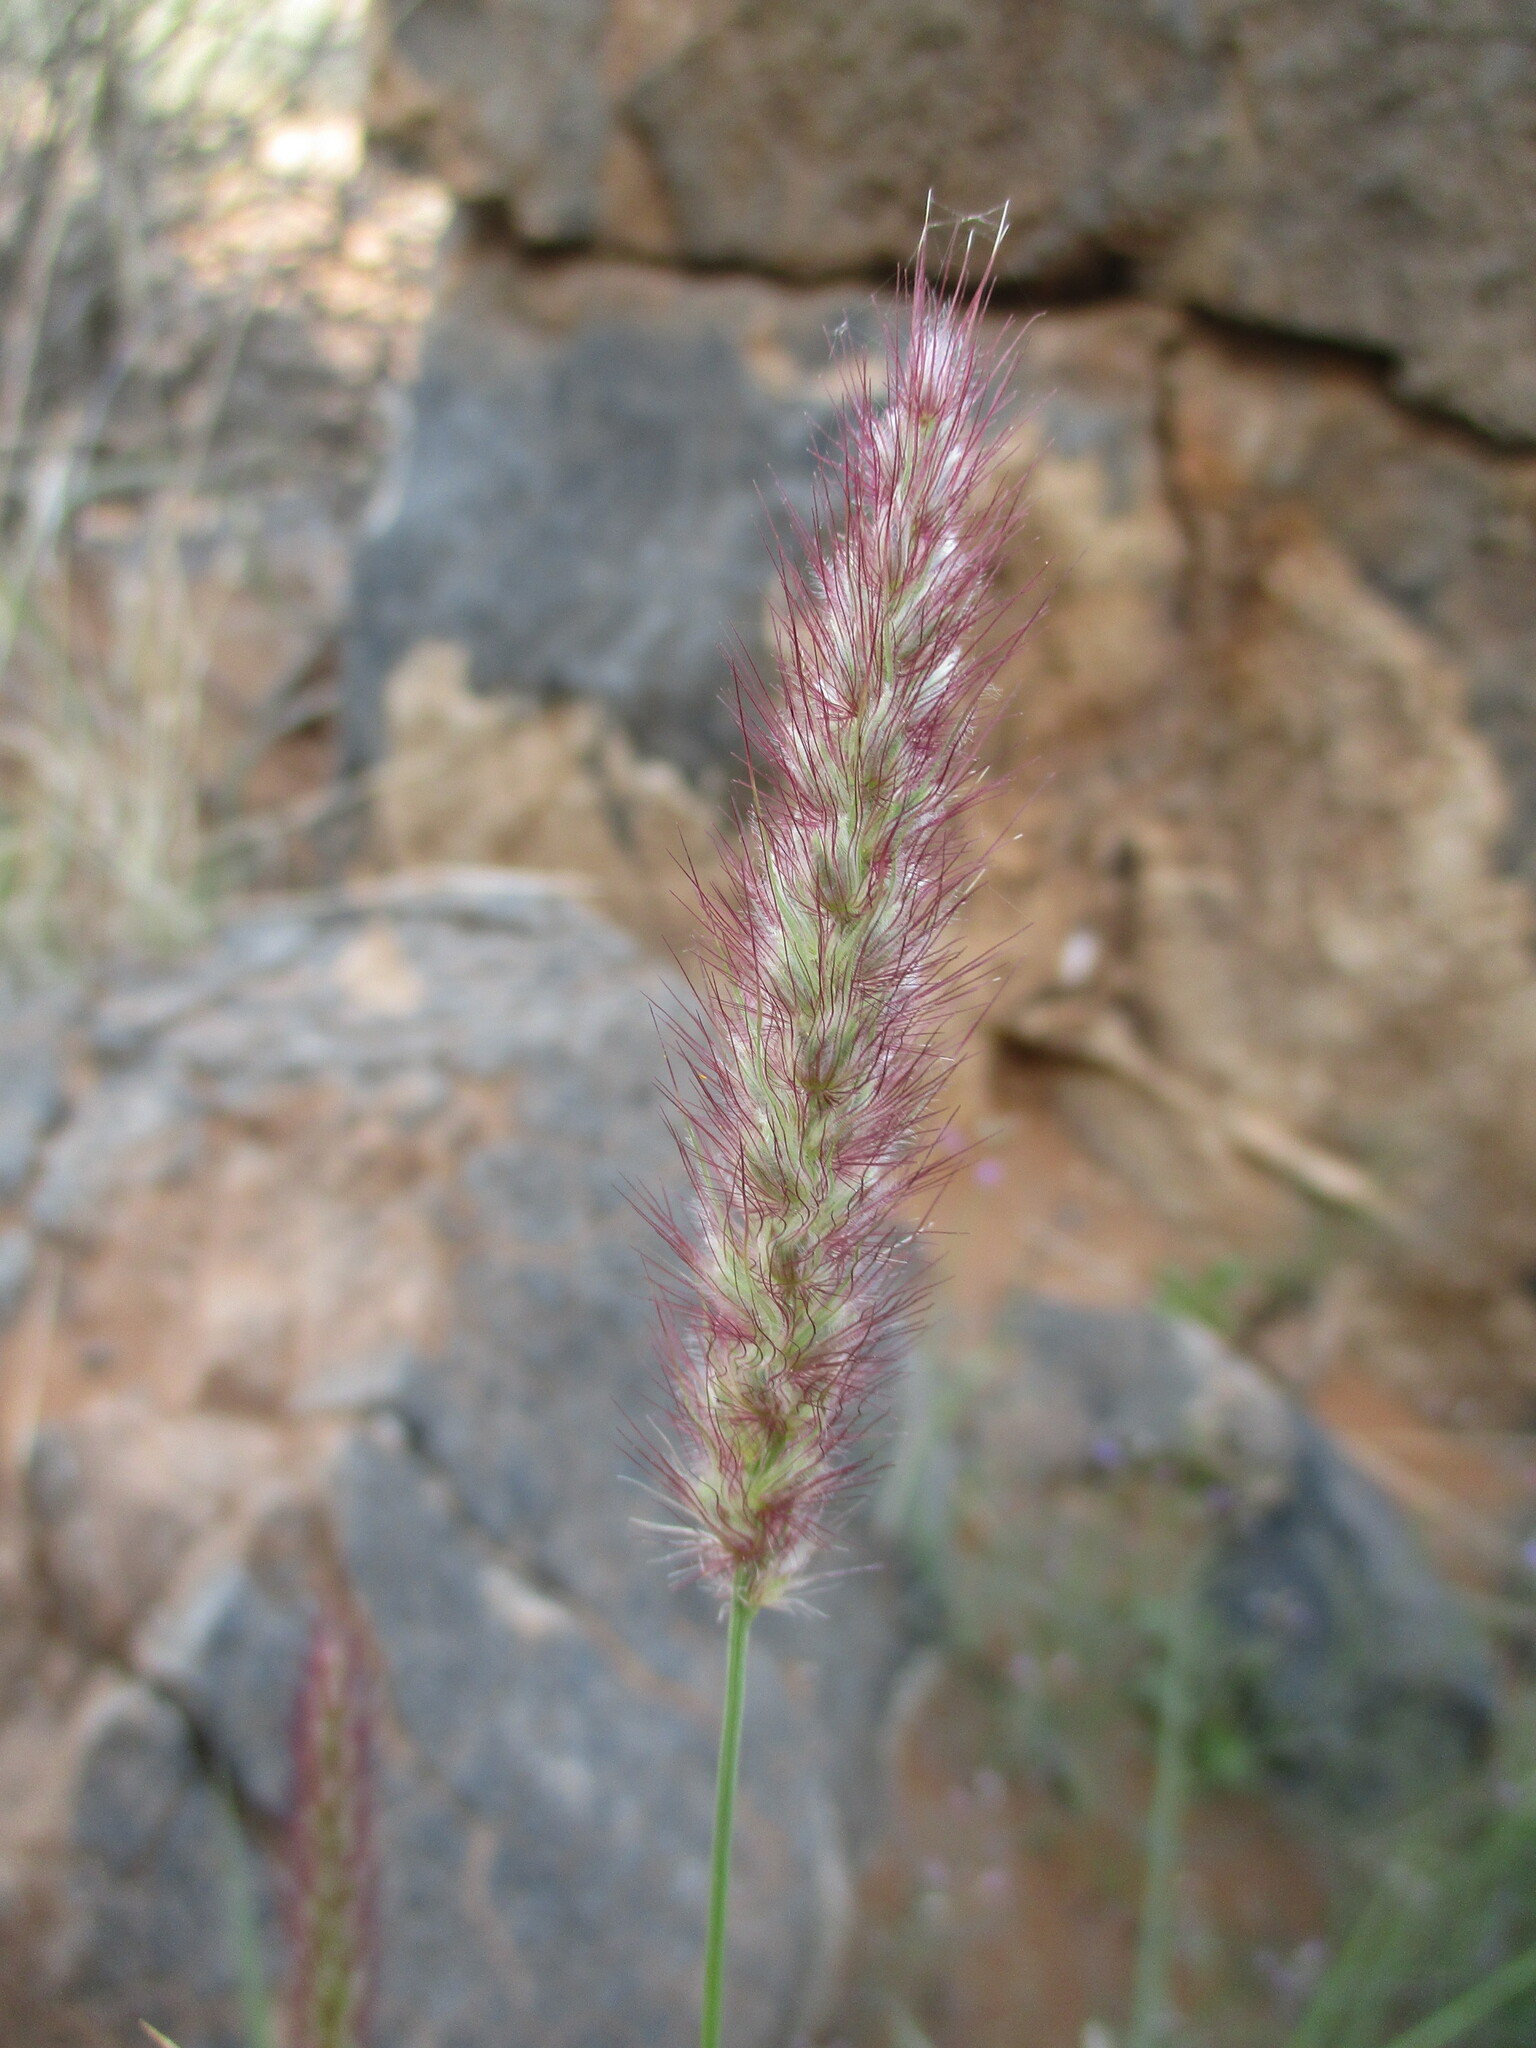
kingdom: Plantae
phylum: Tracheophyta
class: Liliopsida
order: Poales
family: Poaceae
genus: Cenchrus
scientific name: Cenchrus ciliaris
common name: Buffelgrass
